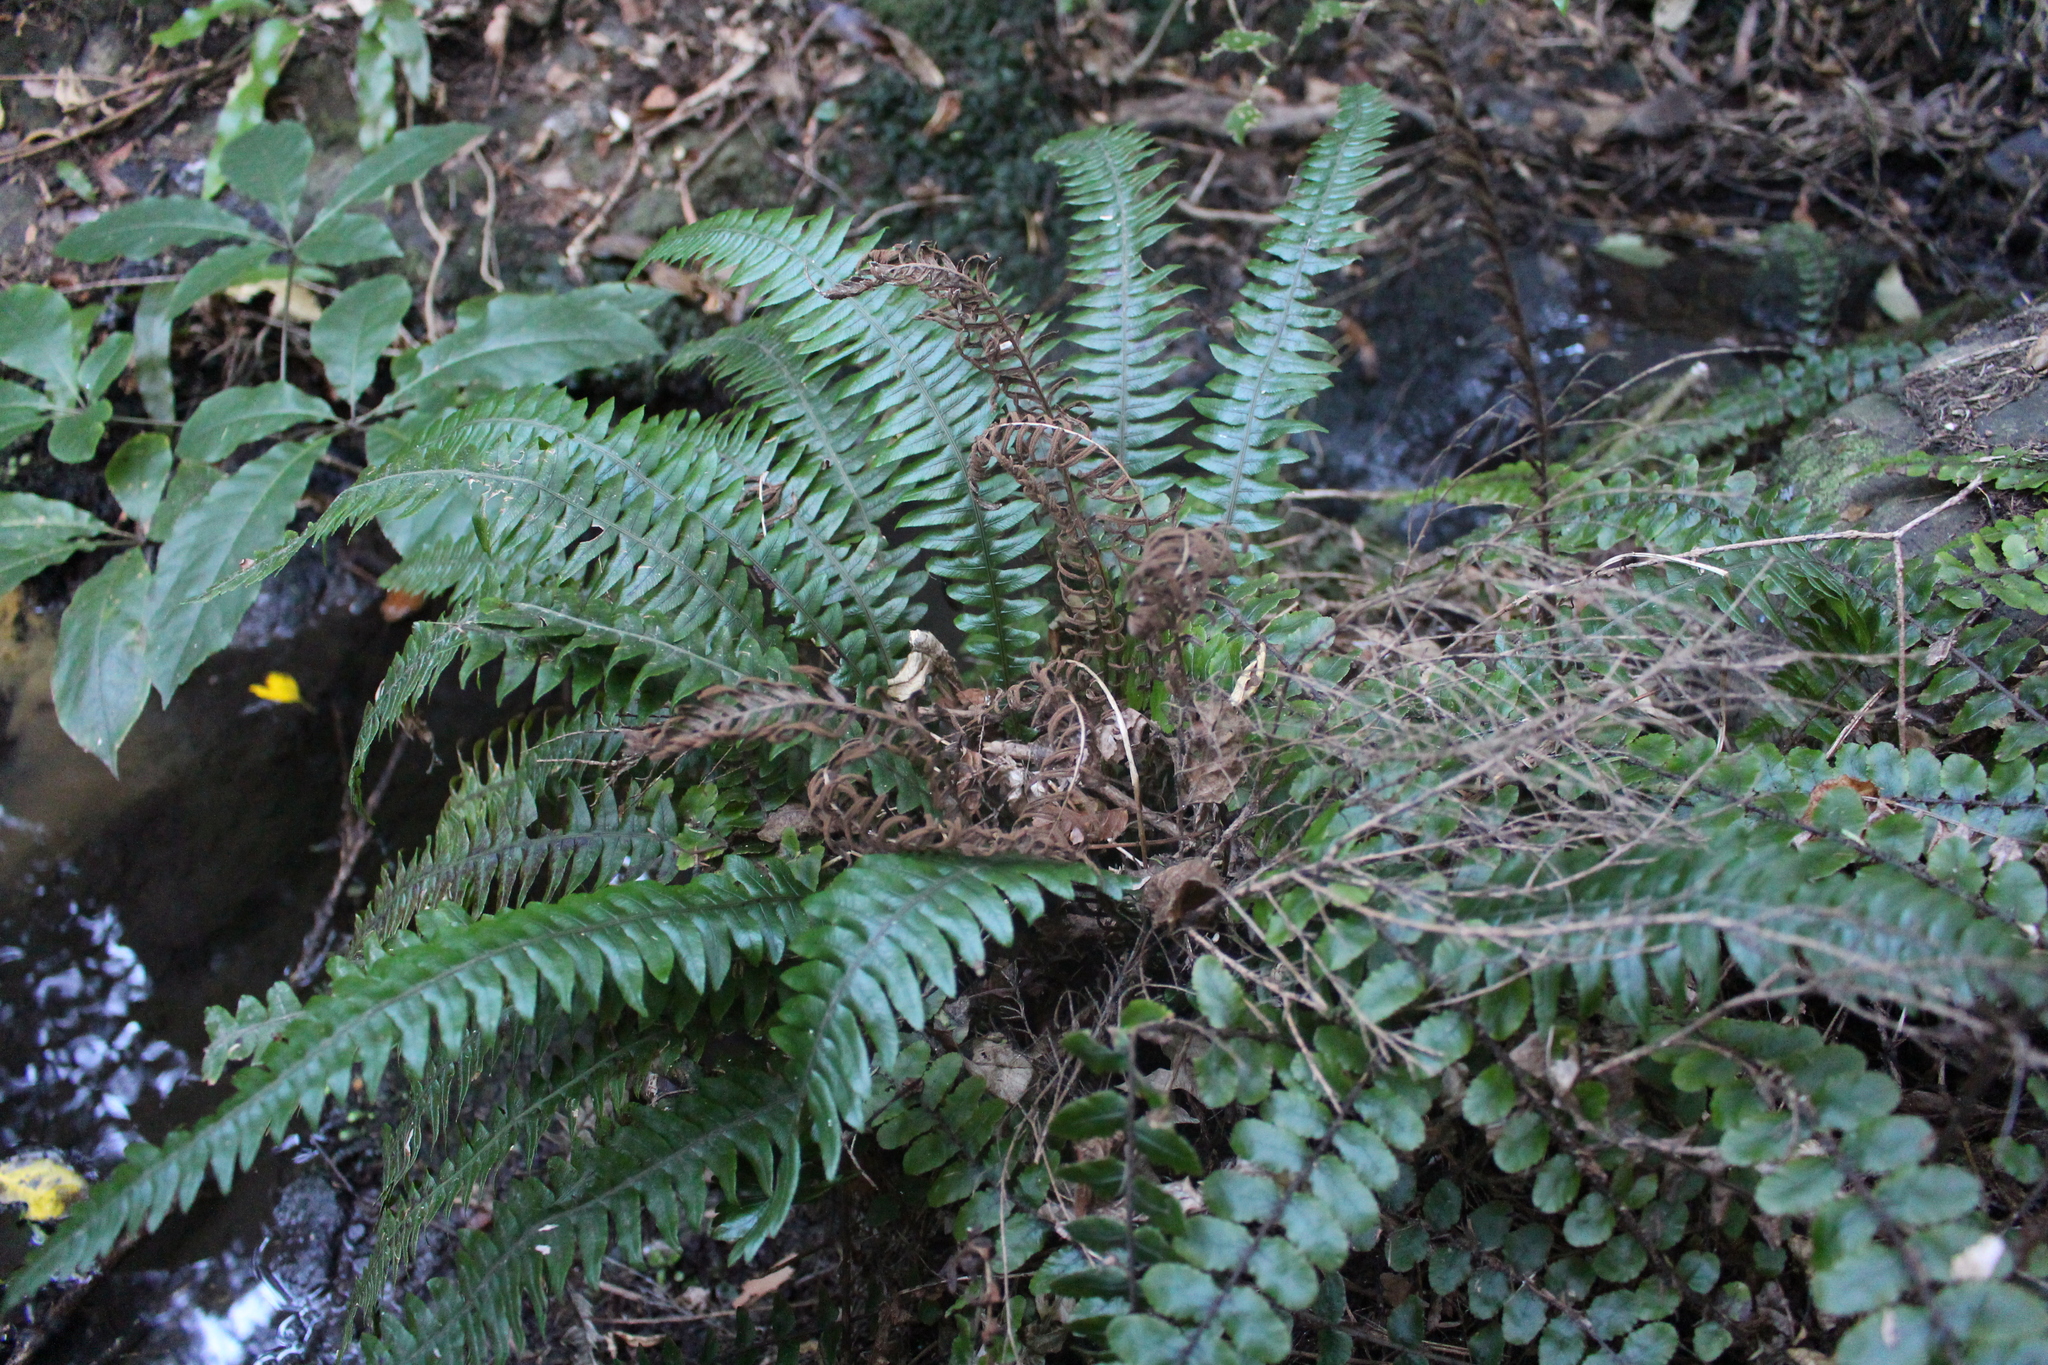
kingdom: Plantae
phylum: Tracheophyta
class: Polypodiopsida
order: Polypodiales
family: Blechnaceae
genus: Austroblechnum
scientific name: Austroblechnum lanceolatum
